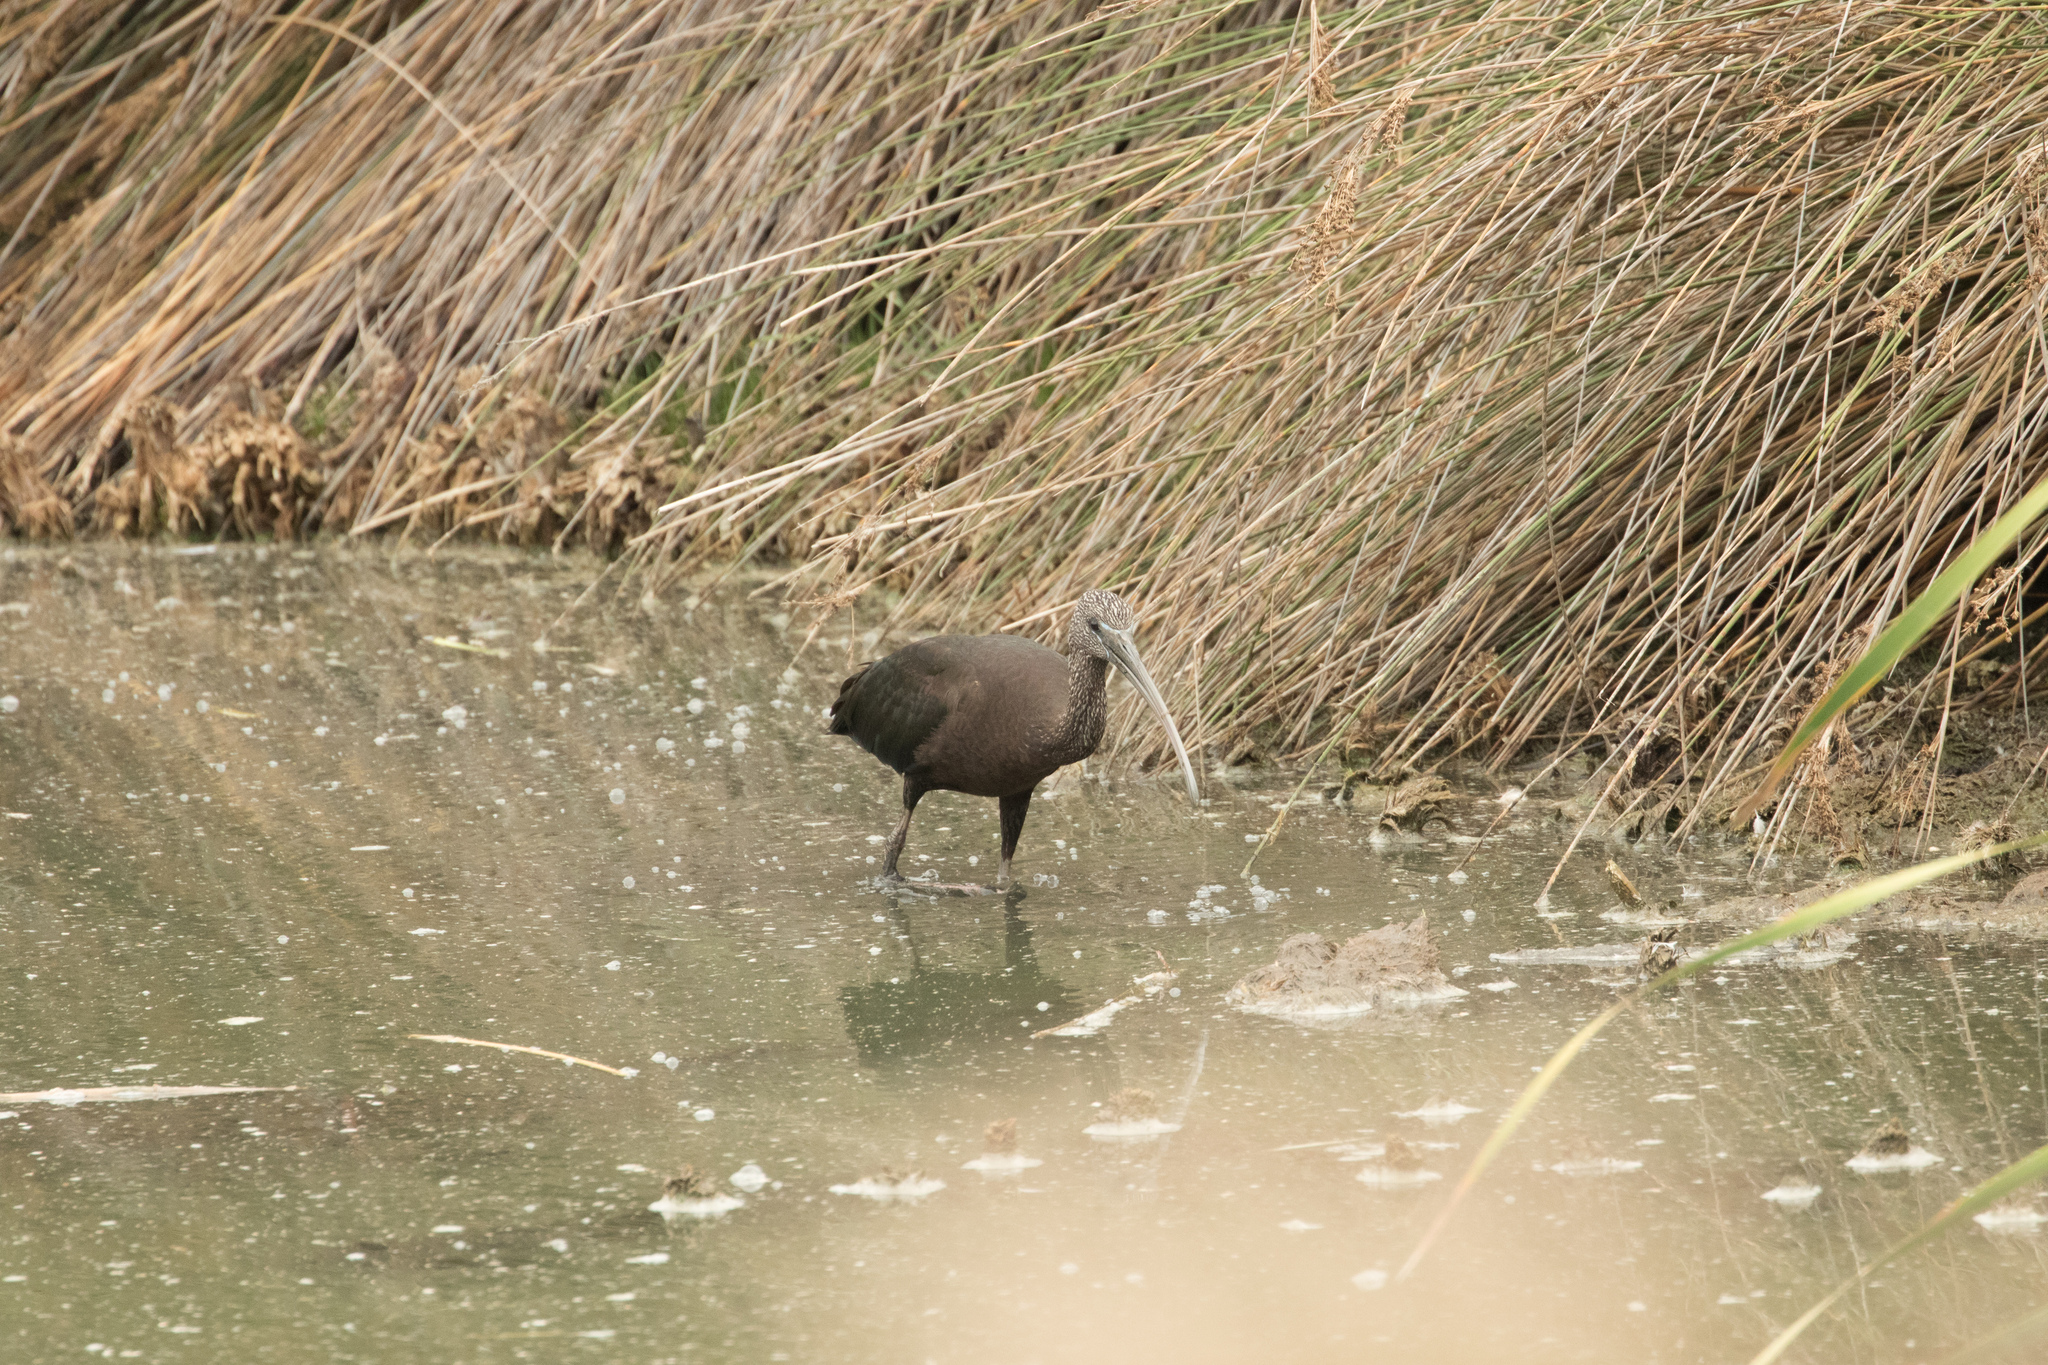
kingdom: Animalia
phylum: Chordata
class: Aves
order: Pelecaniformes
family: Threskiornithidae
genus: Plegadis
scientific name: Plegadis falcinellus
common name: Glossy ibis
